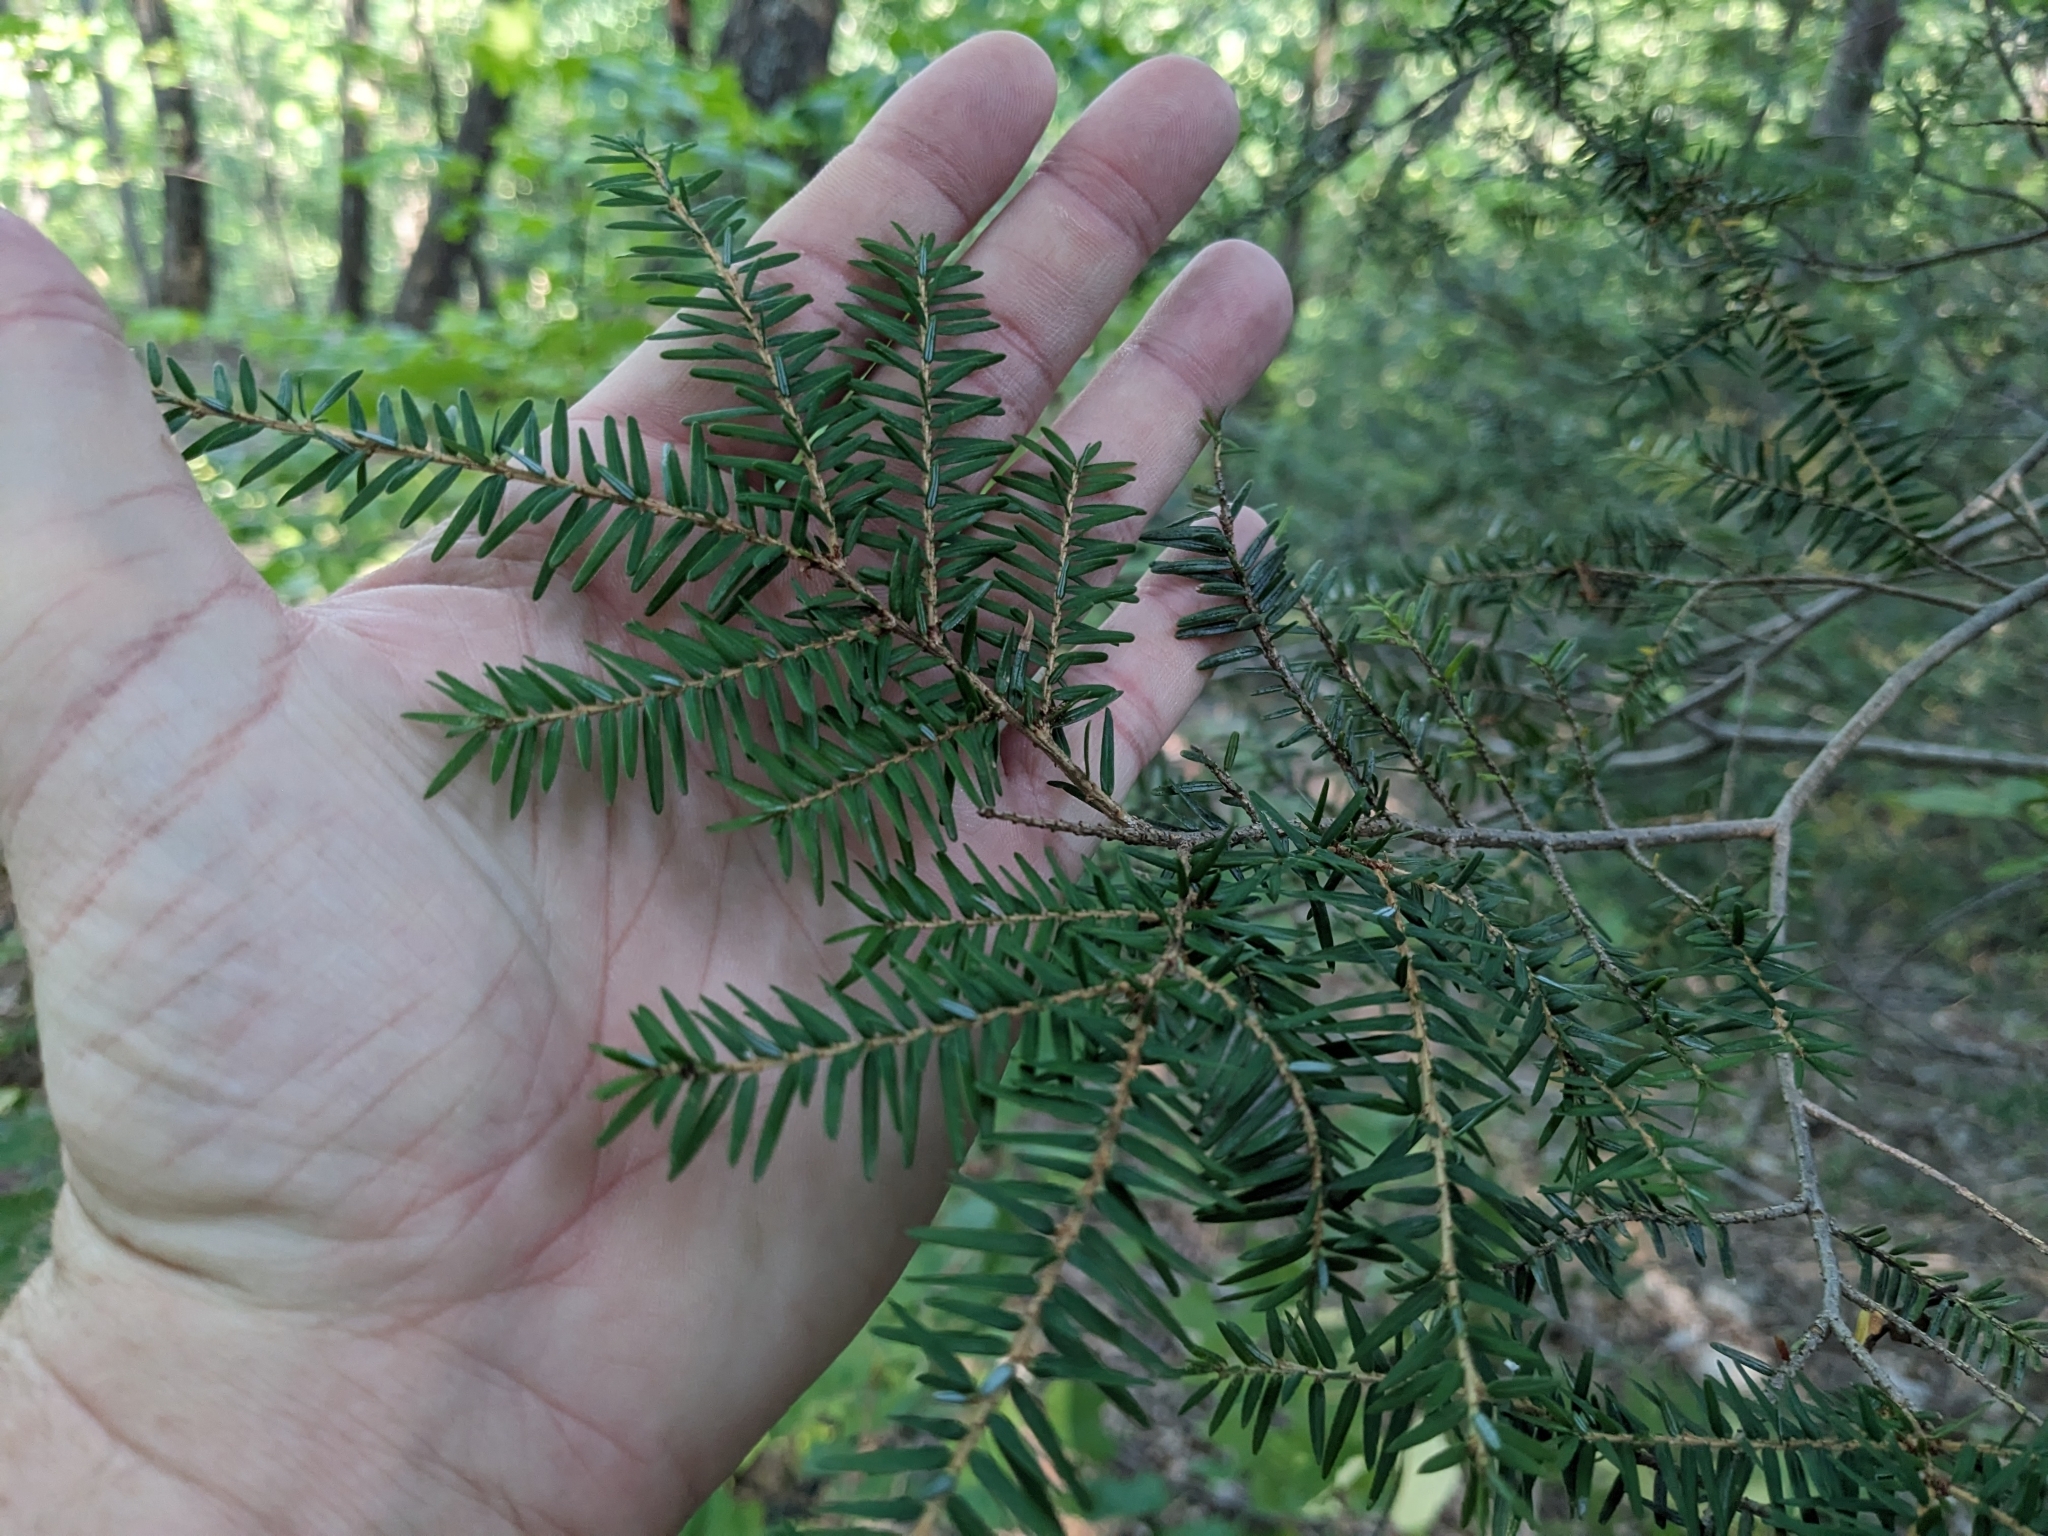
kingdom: Plantae
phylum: Tracheophyta
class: Pinopsida
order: Pinales
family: Pinaceae
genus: Tsuga
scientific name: Tsuga canadensis
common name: Eastern hemlock
